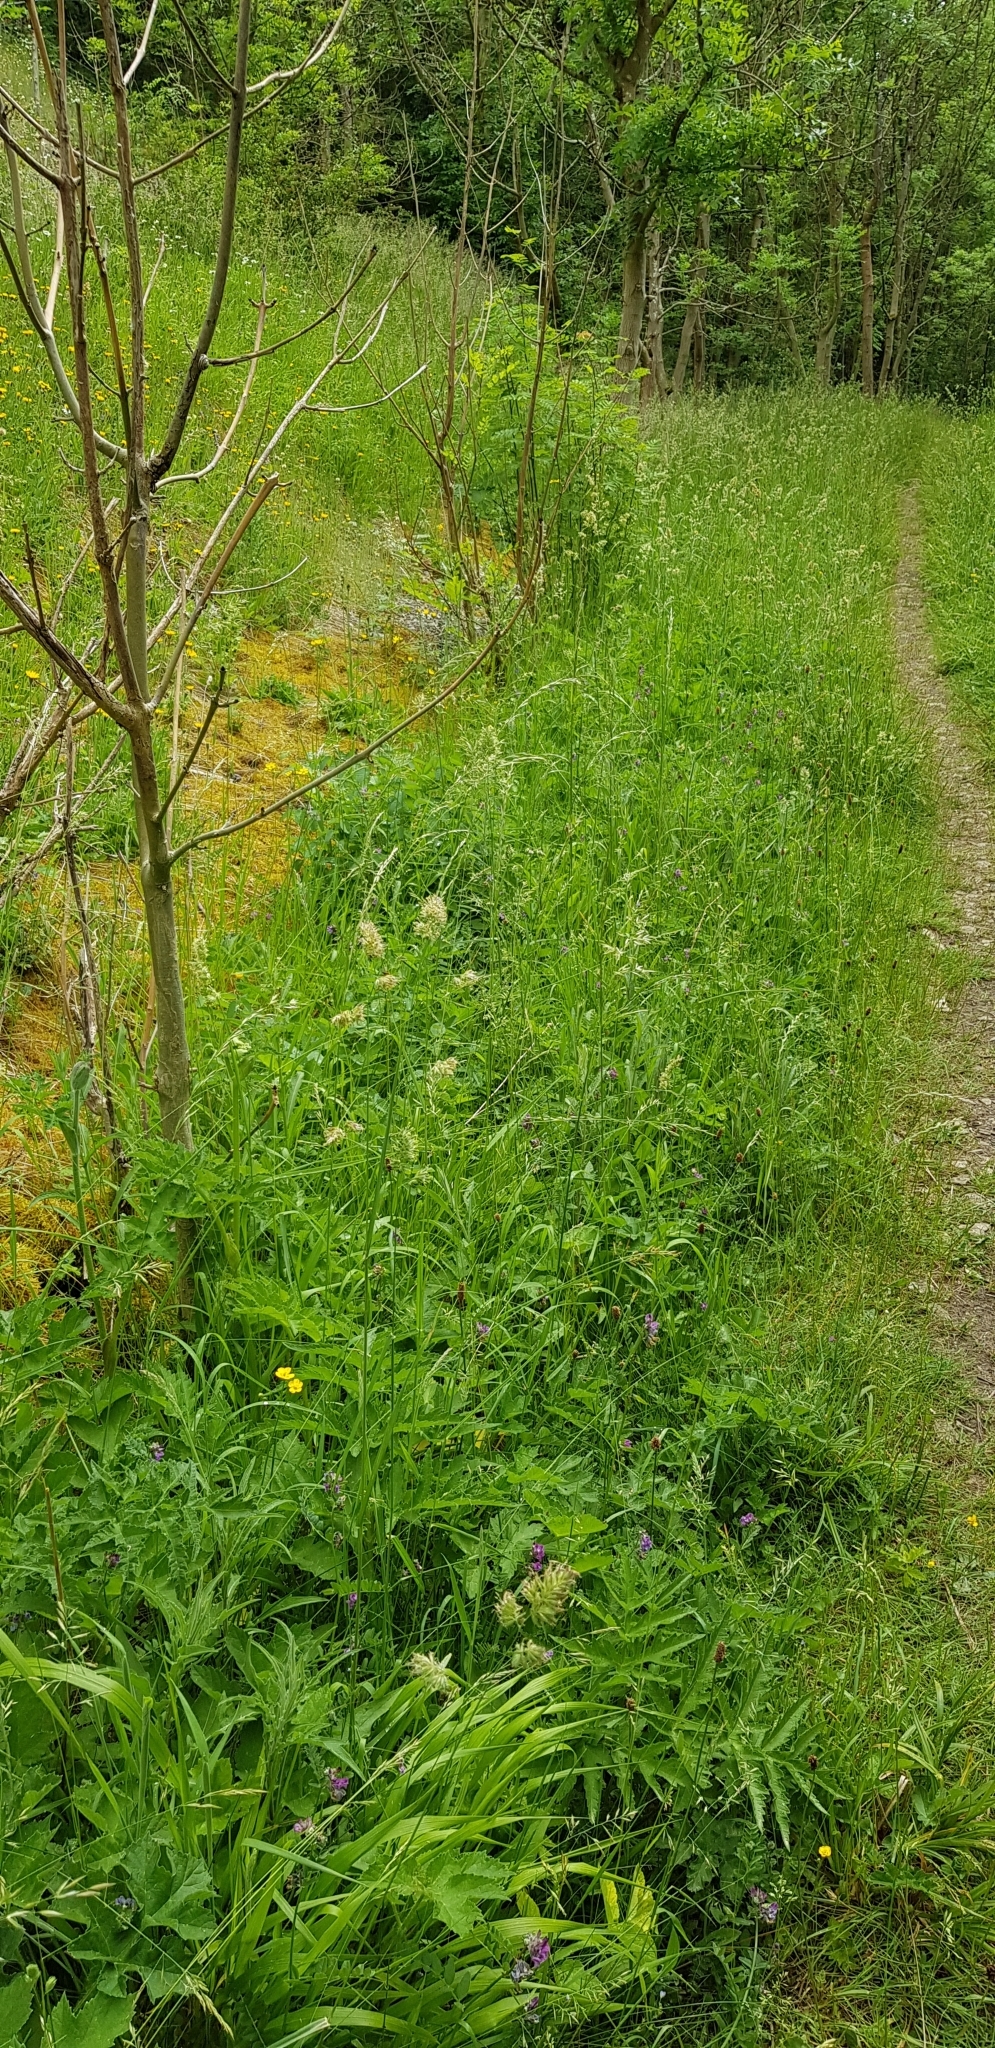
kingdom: Plantae
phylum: Bryophyta
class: Bryopsida
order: Hypnales
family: Hylocomiaceae
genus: Rhytidiadelphus
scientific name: Rhytidiadelphus squarrosus
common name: Springy turf-moss
